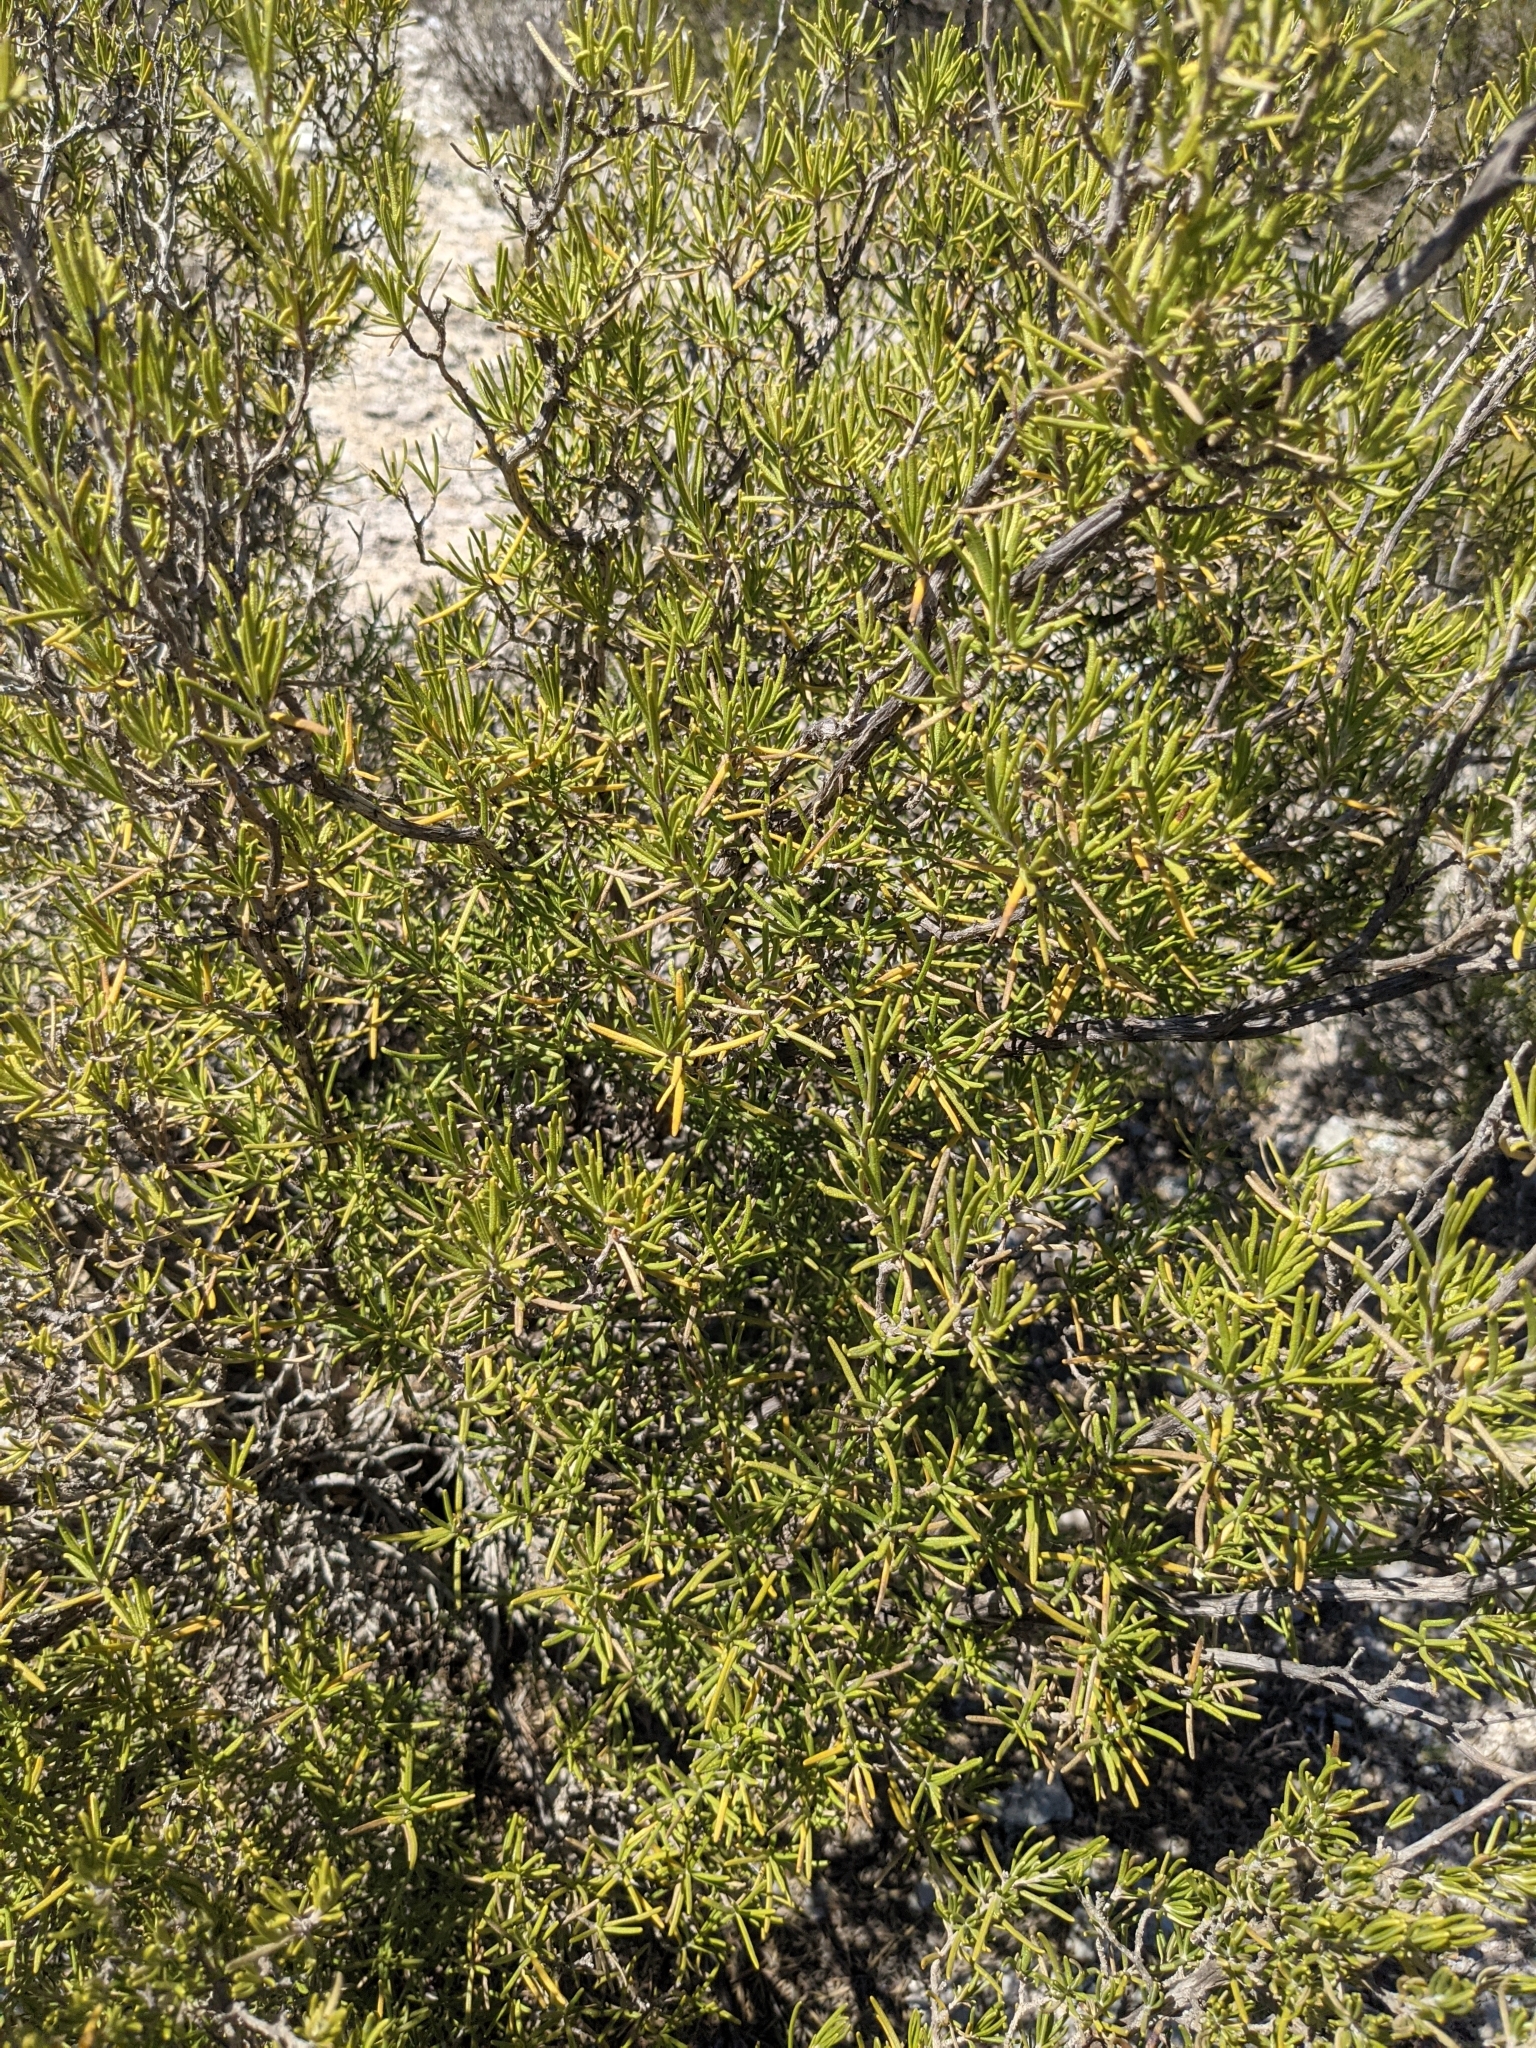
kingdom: Plantae
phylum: Tracheophyta
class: Magnoliopsida
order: Lamiales
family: Lamiaceae
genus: Salvia
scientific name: Salvia rosmarinus
